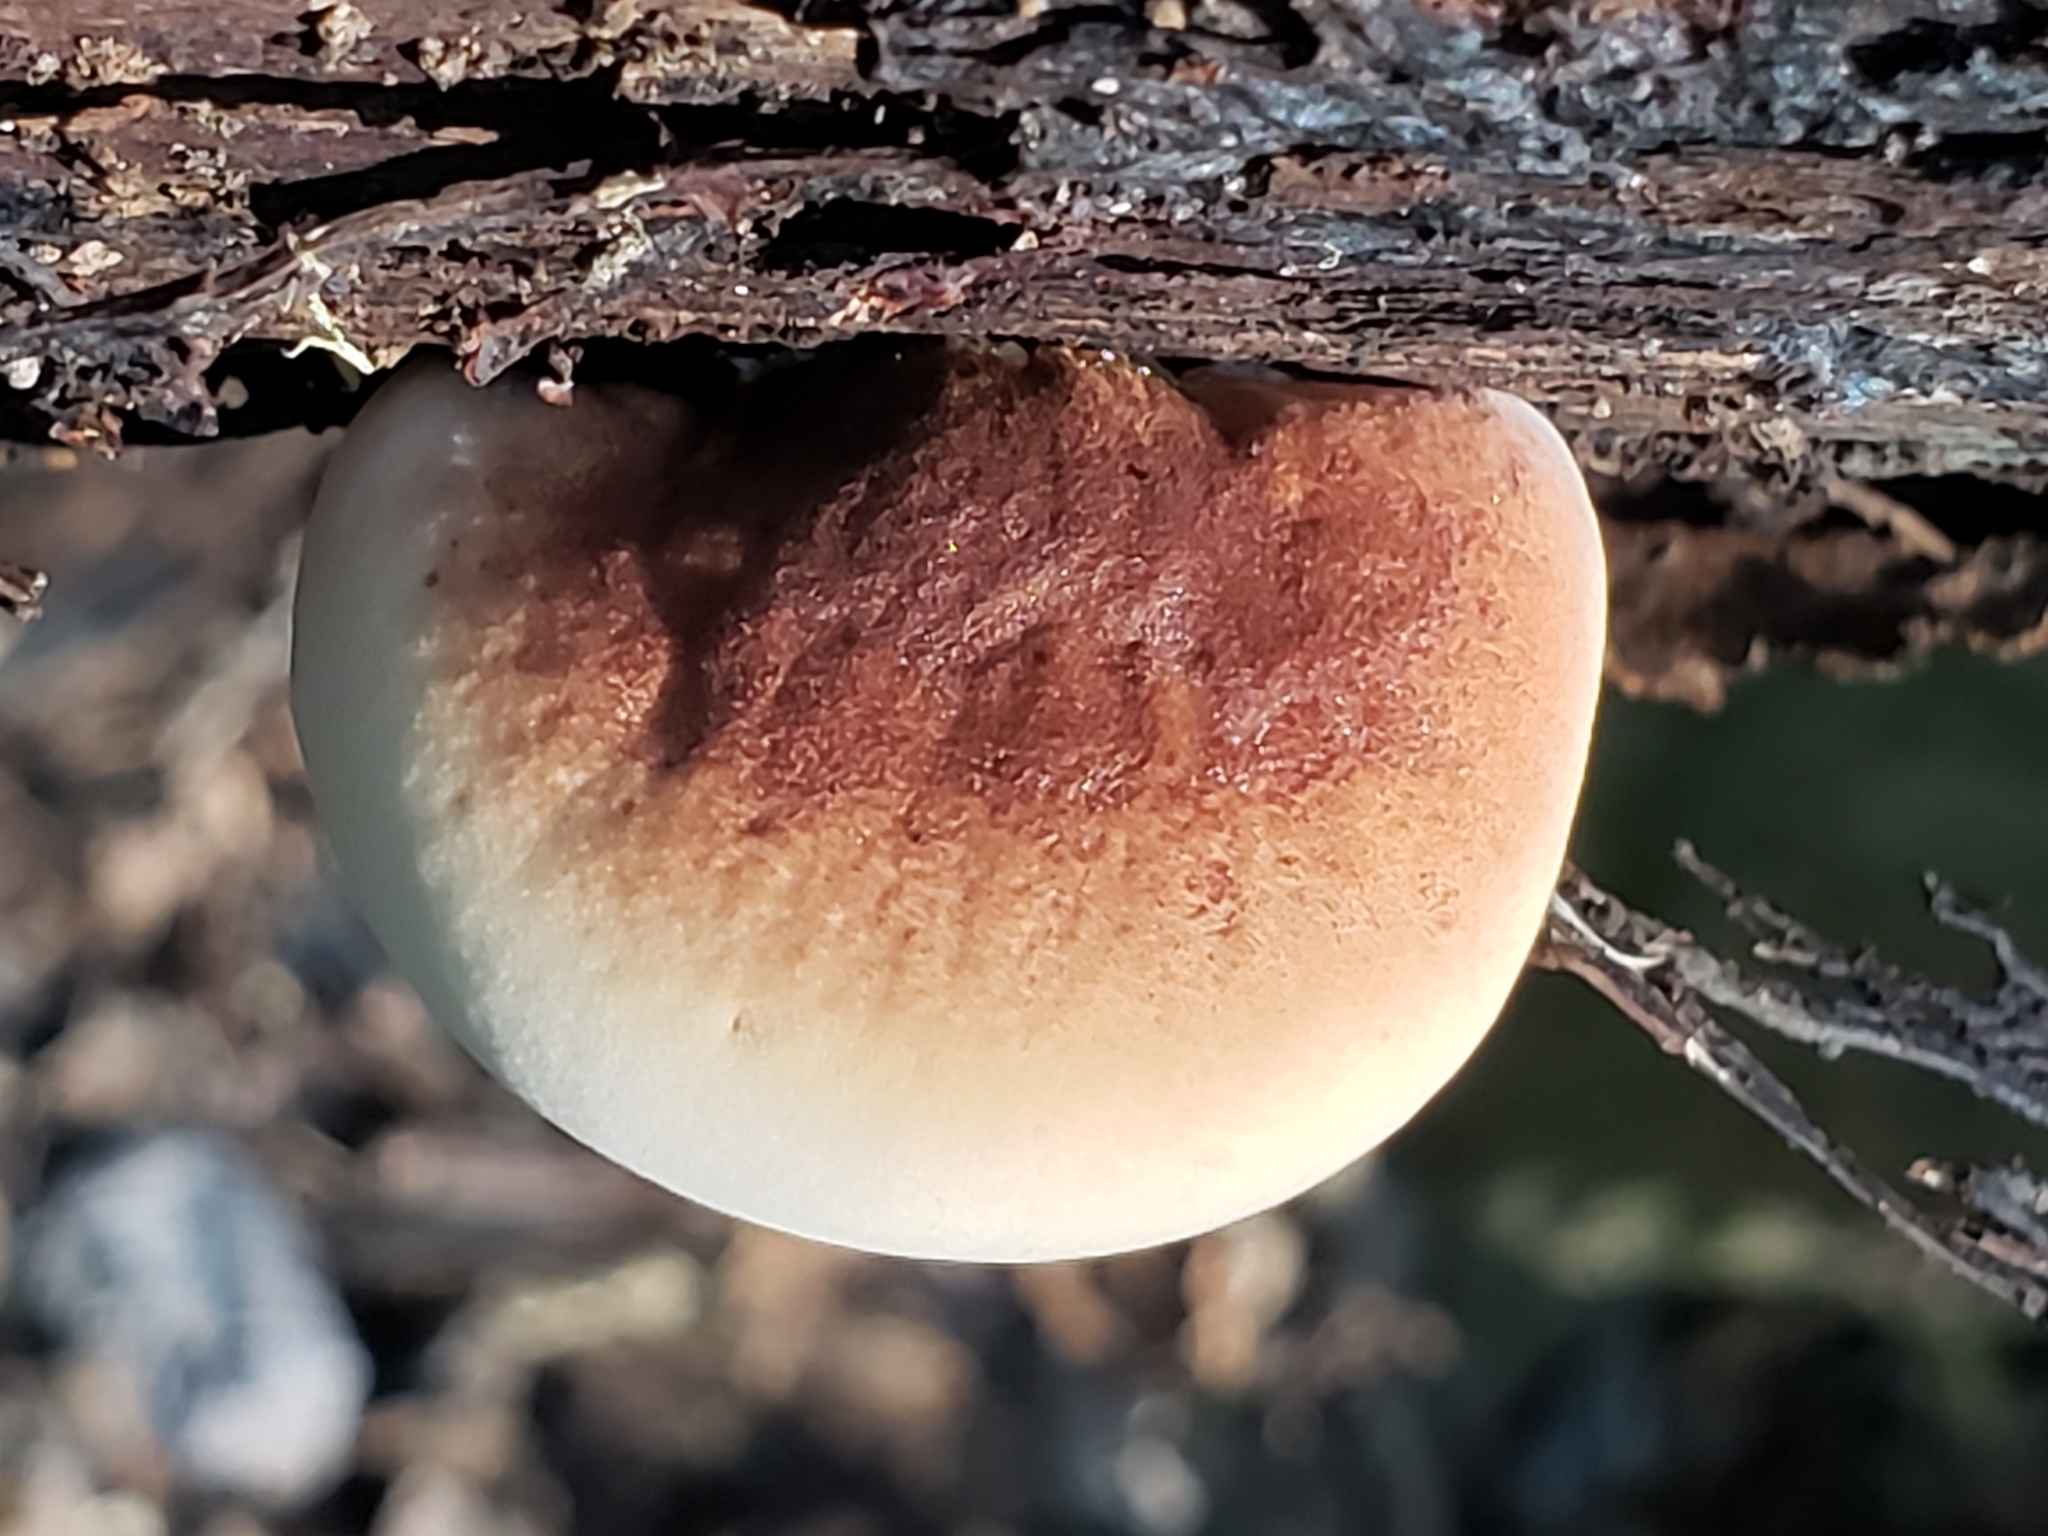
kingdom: Fungi
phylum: Basidiomycota
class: Agaricomycetes
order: Polyporales
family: Ischnodermataceae
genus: Ischnoderma
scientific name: Ischnoderma resinosum
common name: Resinous polypore
